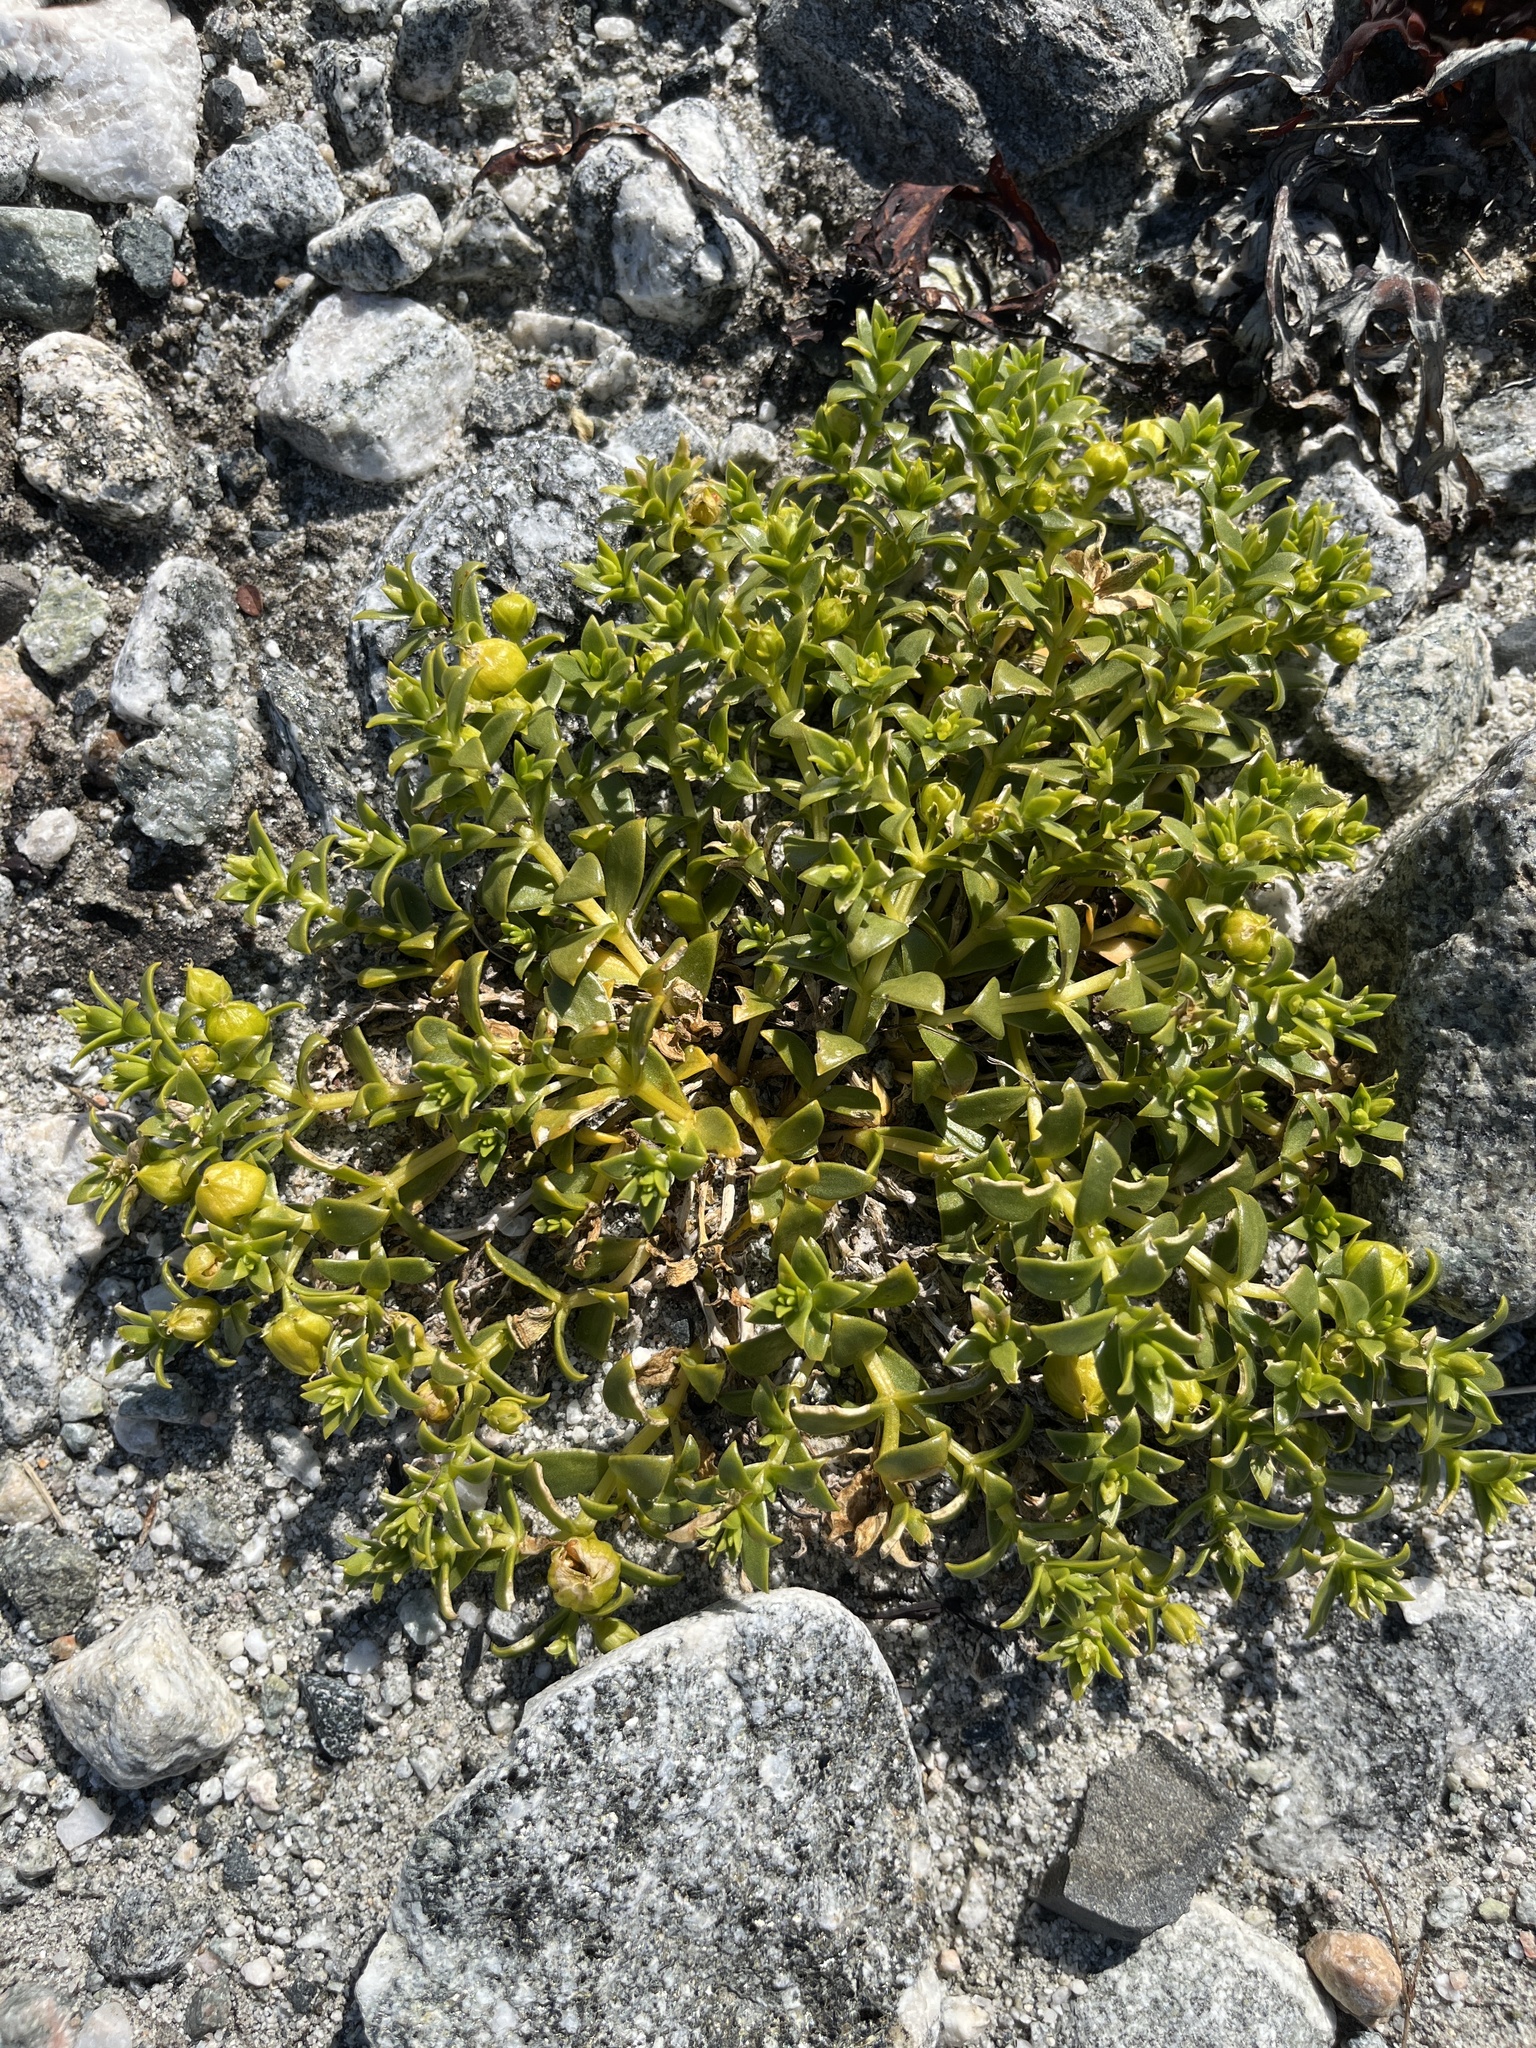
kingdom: Plantae
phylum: Tracheophyta
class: Magnoliopsida
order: Caryophyllales
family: Caryophyllaceae
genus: Honckenya
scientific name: Honckenya peploides
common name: Sea sandwort
